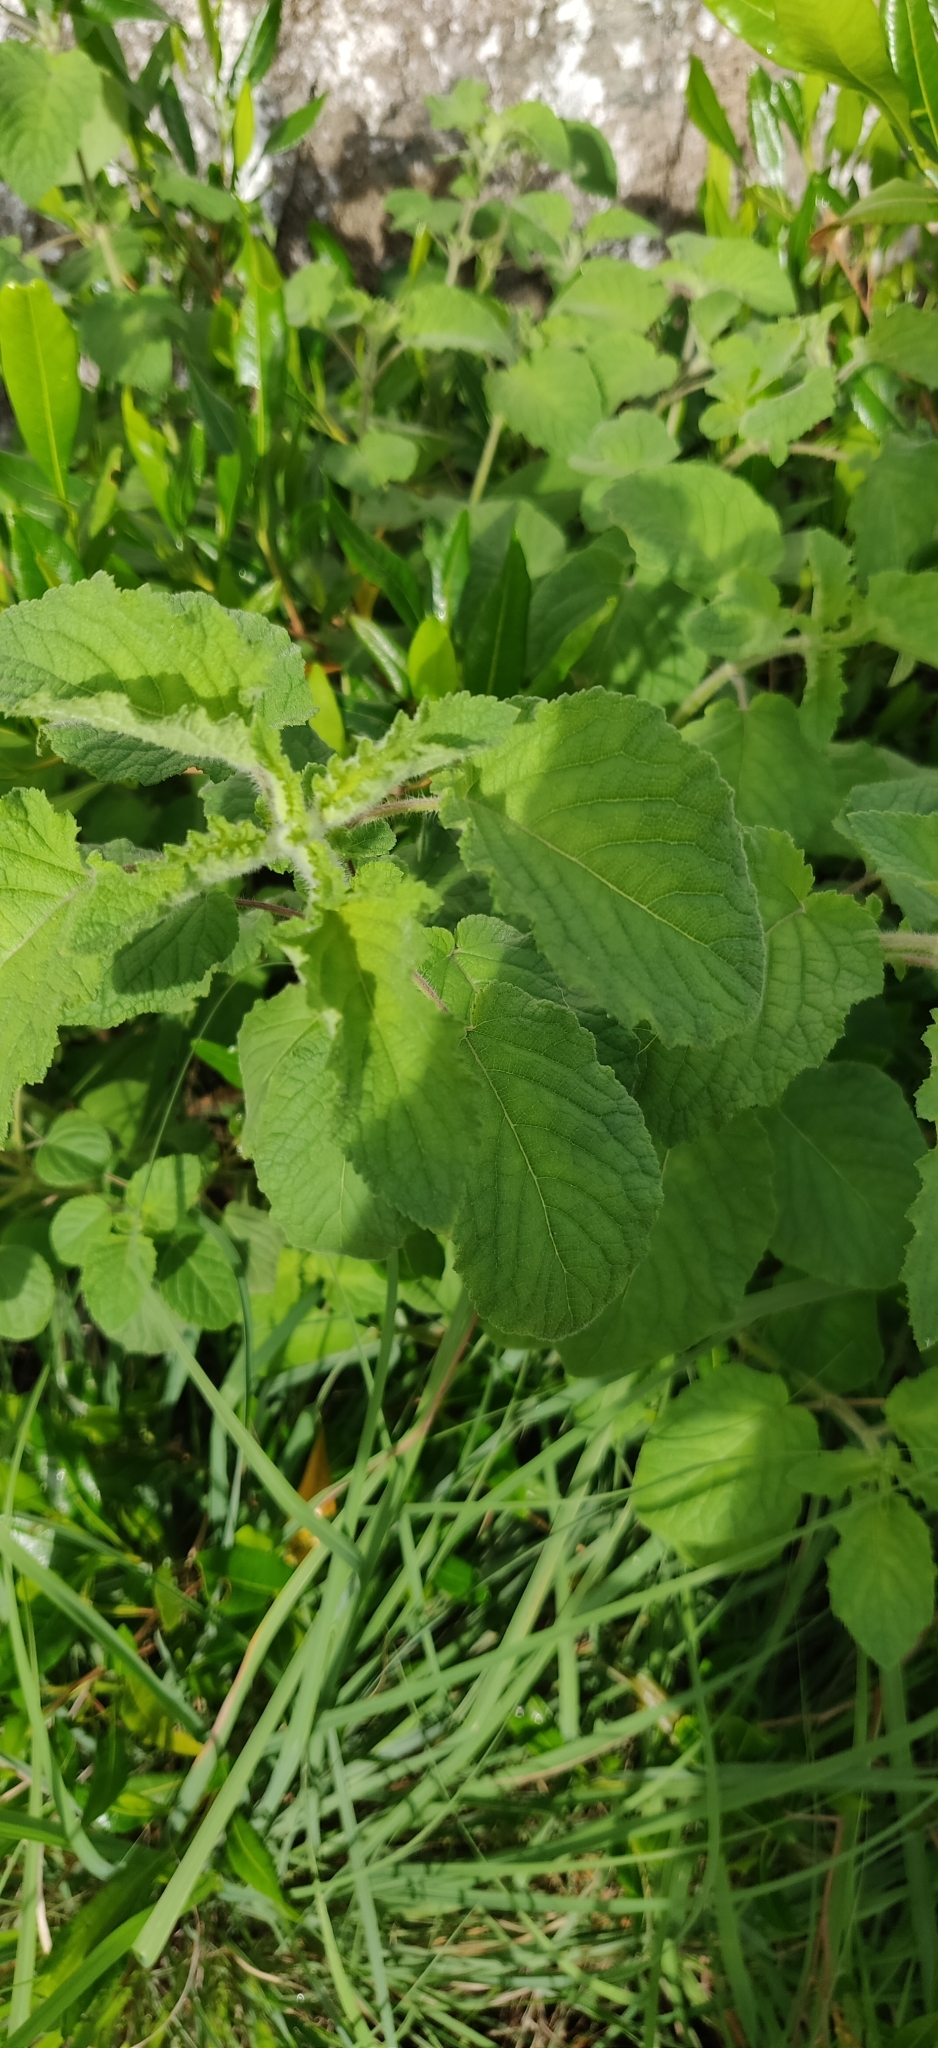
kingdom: Plantae
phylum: Tracheophyta
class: Magnoliopsida
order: Lamiales
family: Lamiaceae
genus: Mesosphaerum
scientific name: Mesosphaerum suaveolens
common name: Pignut
